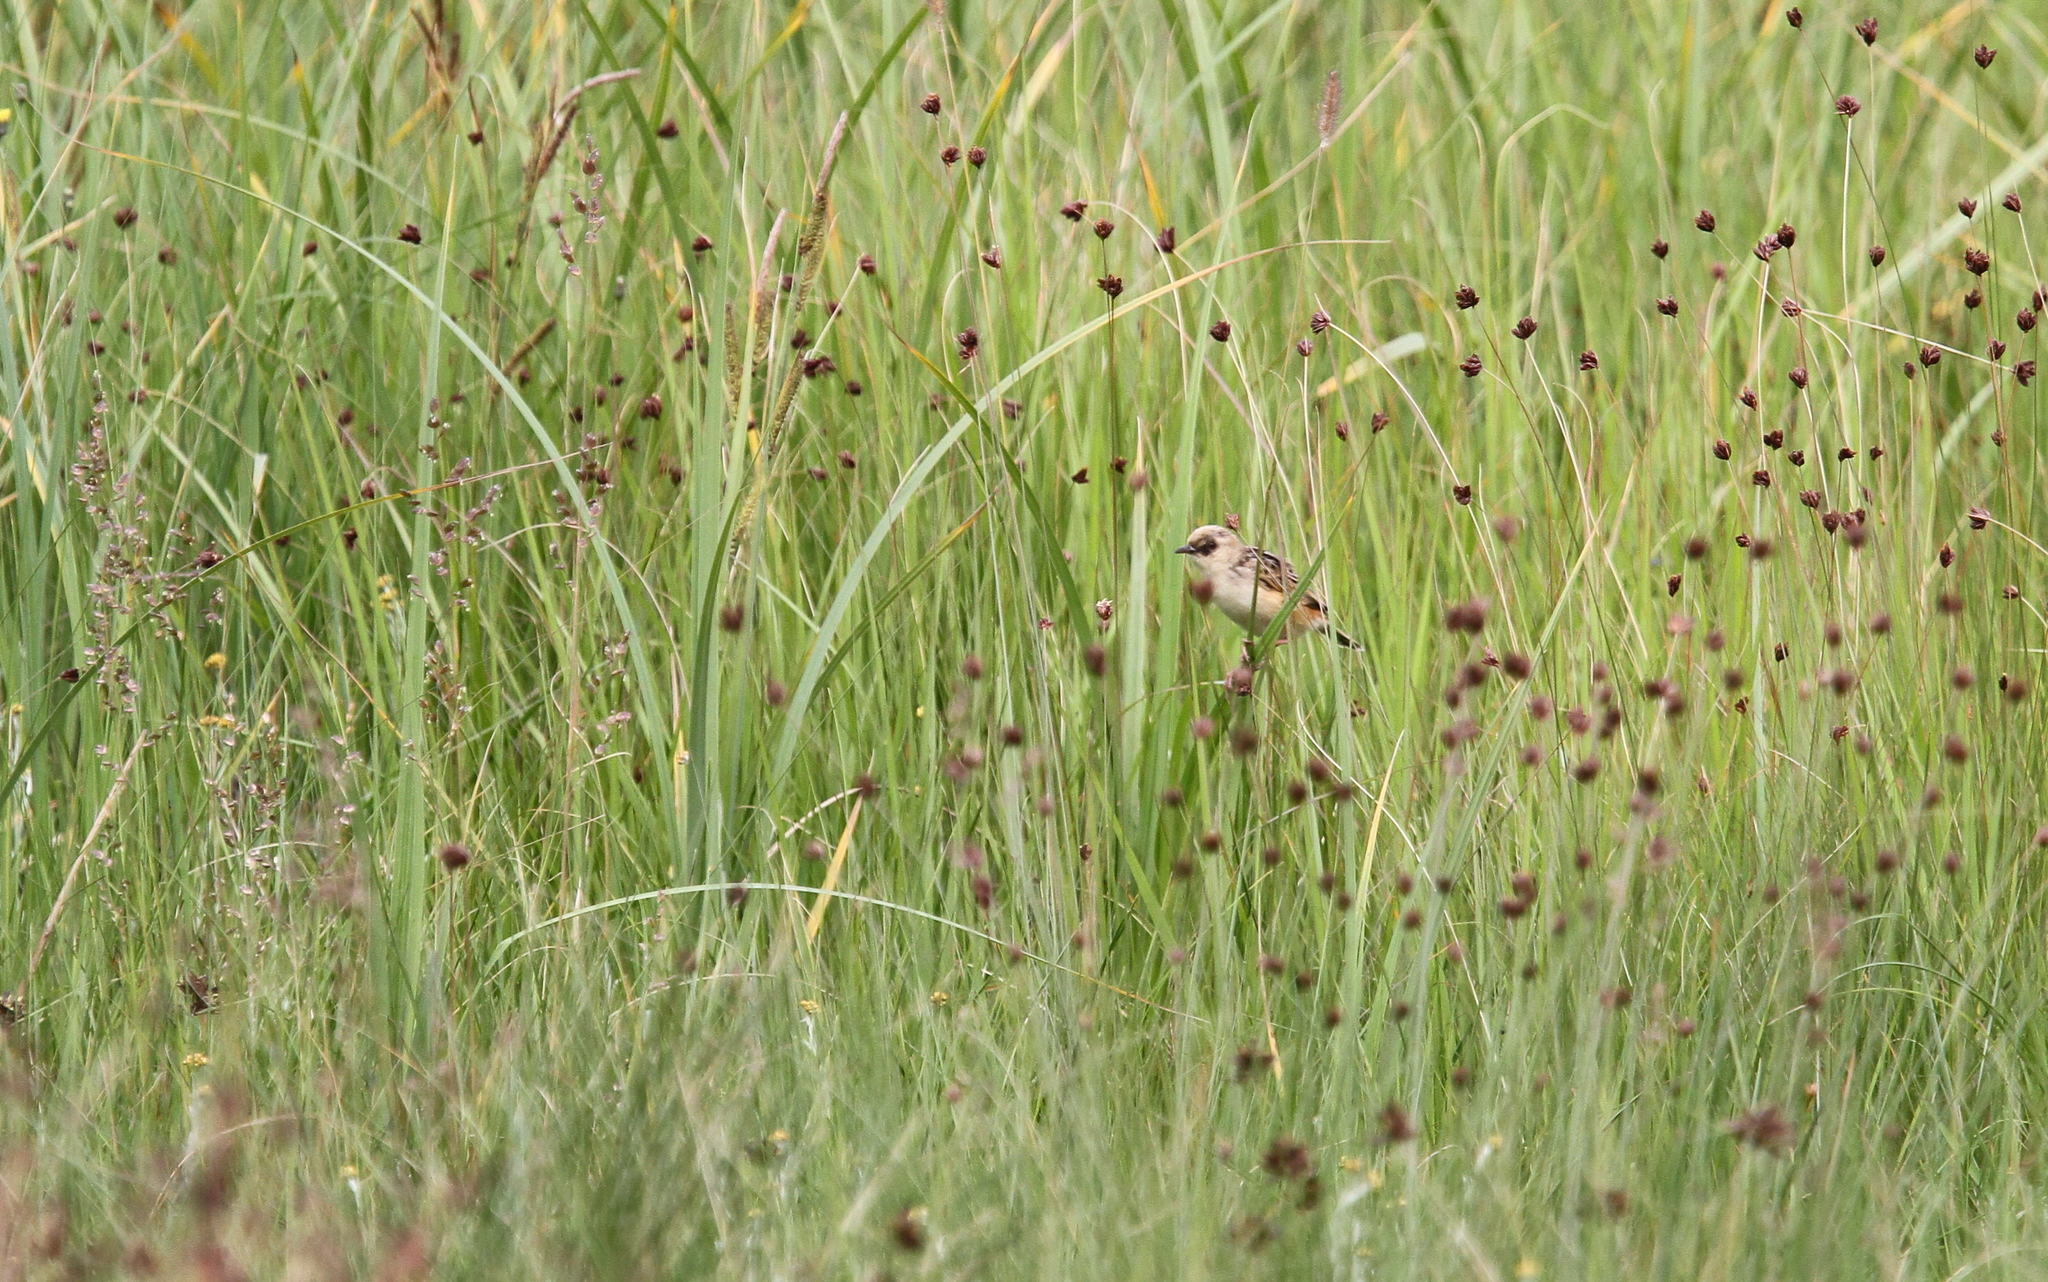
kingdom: Animalia
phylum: Chordata
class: Aves
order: Passeriformes
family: Cisticolidae
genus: Cisticola
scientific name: Cisticola cinnamomeus
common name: Pale-crowned cisticola
